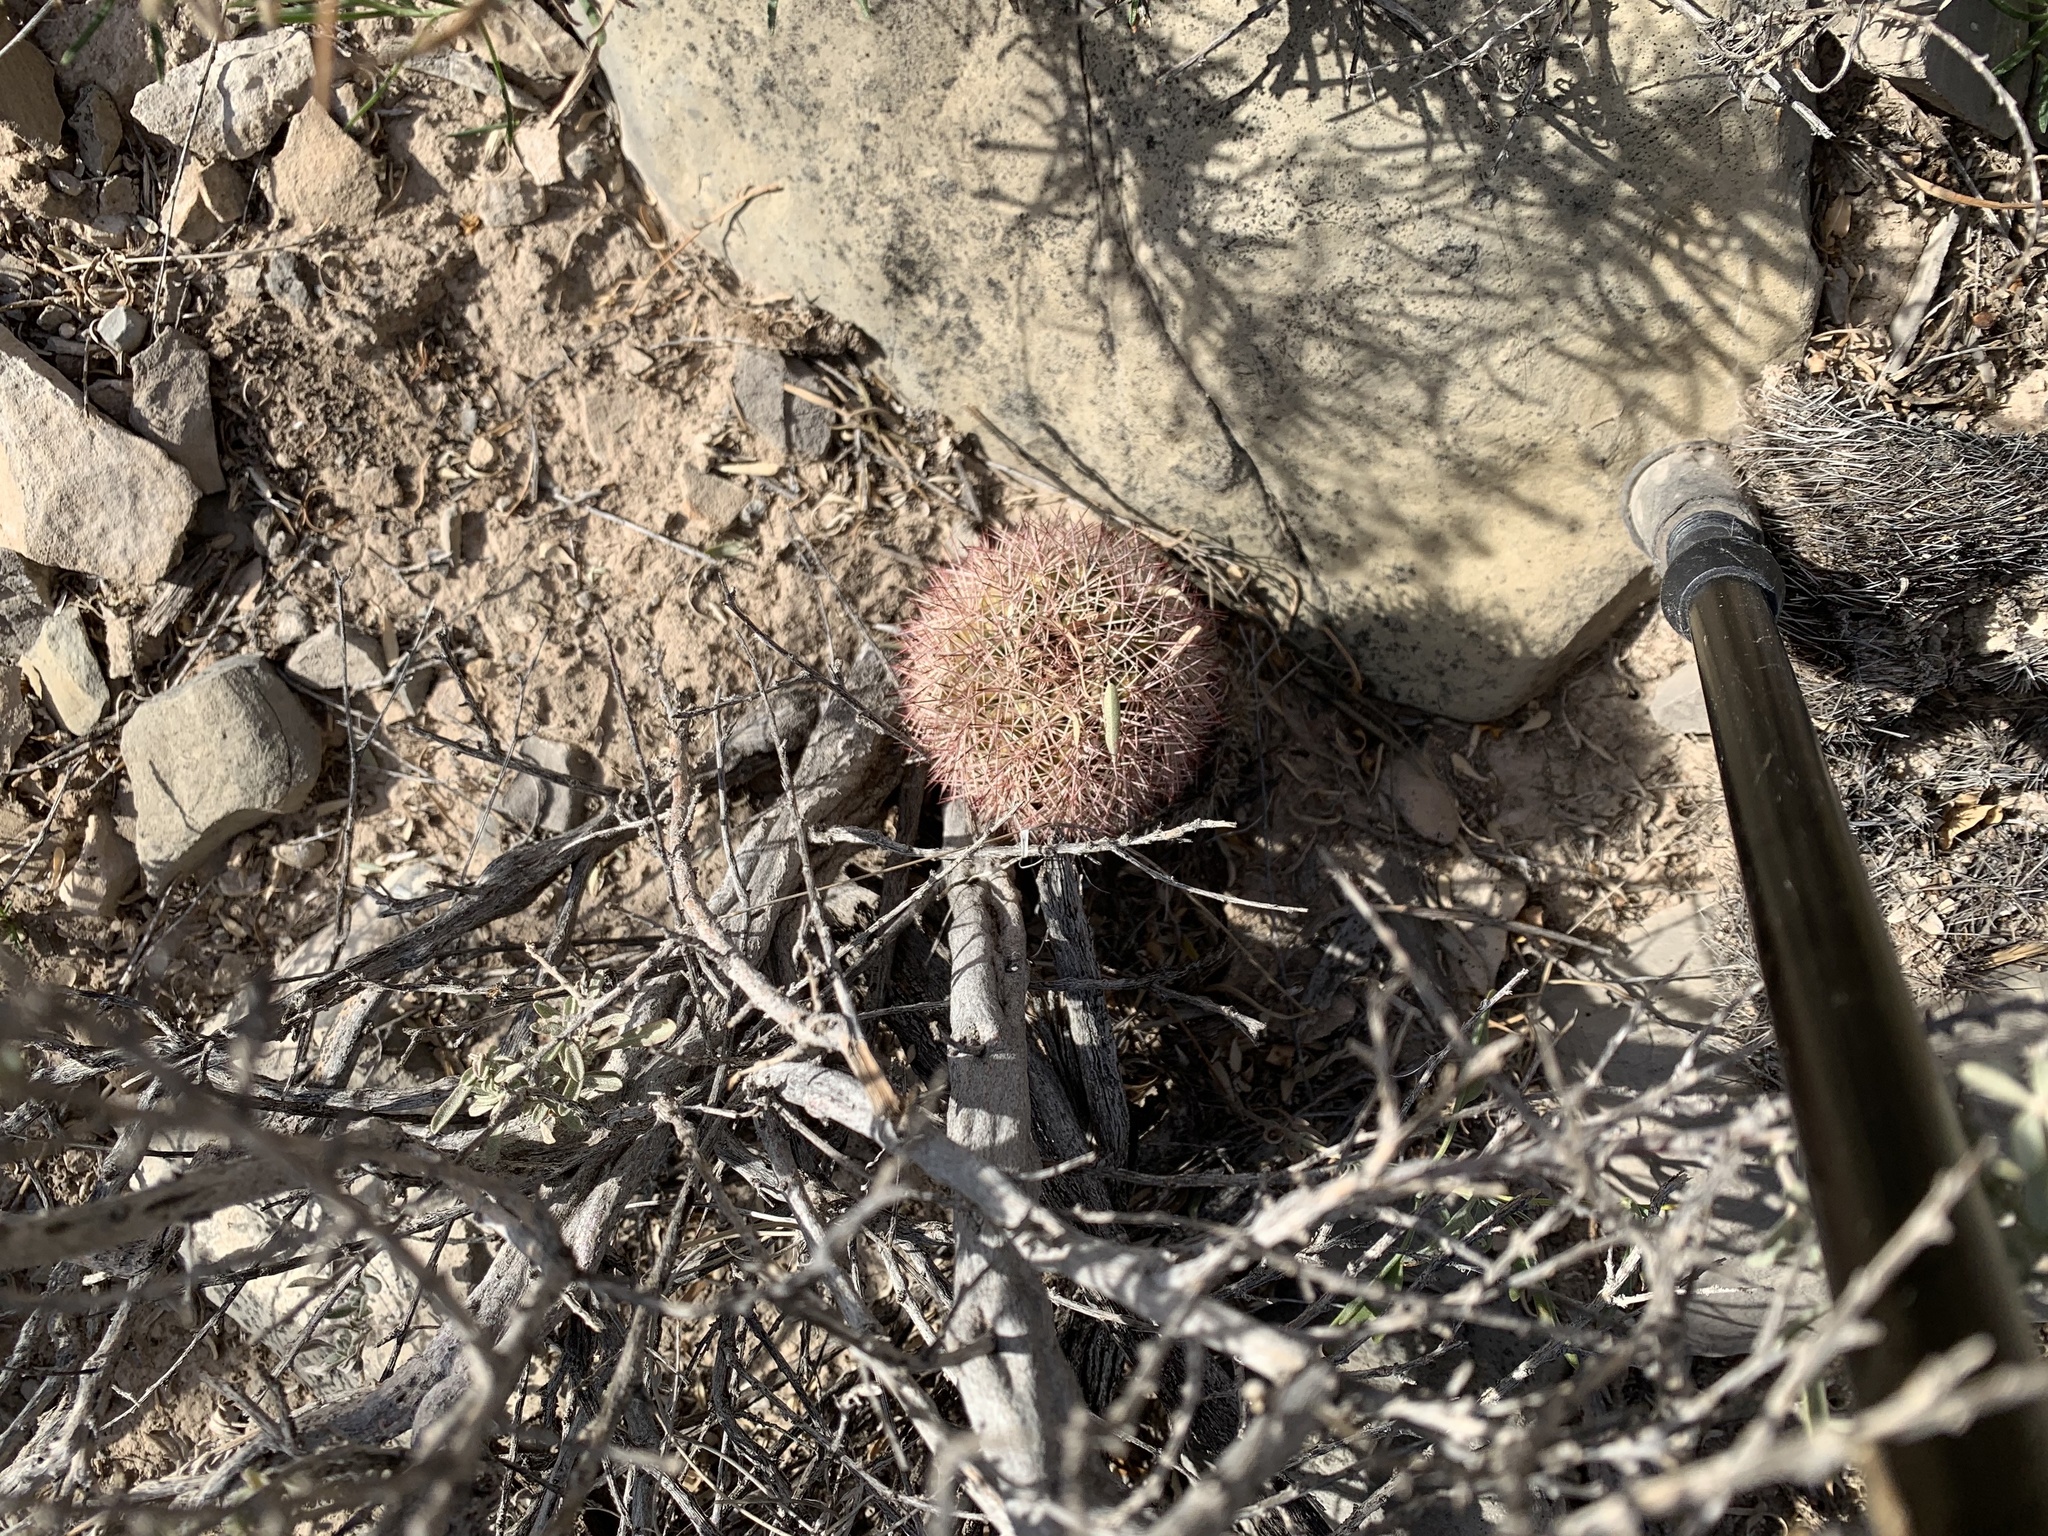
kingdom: Plantae
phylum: Tracheophyta
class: Magnoliopsida
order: Caryophyllales
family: Cactaceae
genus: Echinocereus
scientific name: Echinocereus dasyacanthus
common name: Spiny hedgehog cactus
